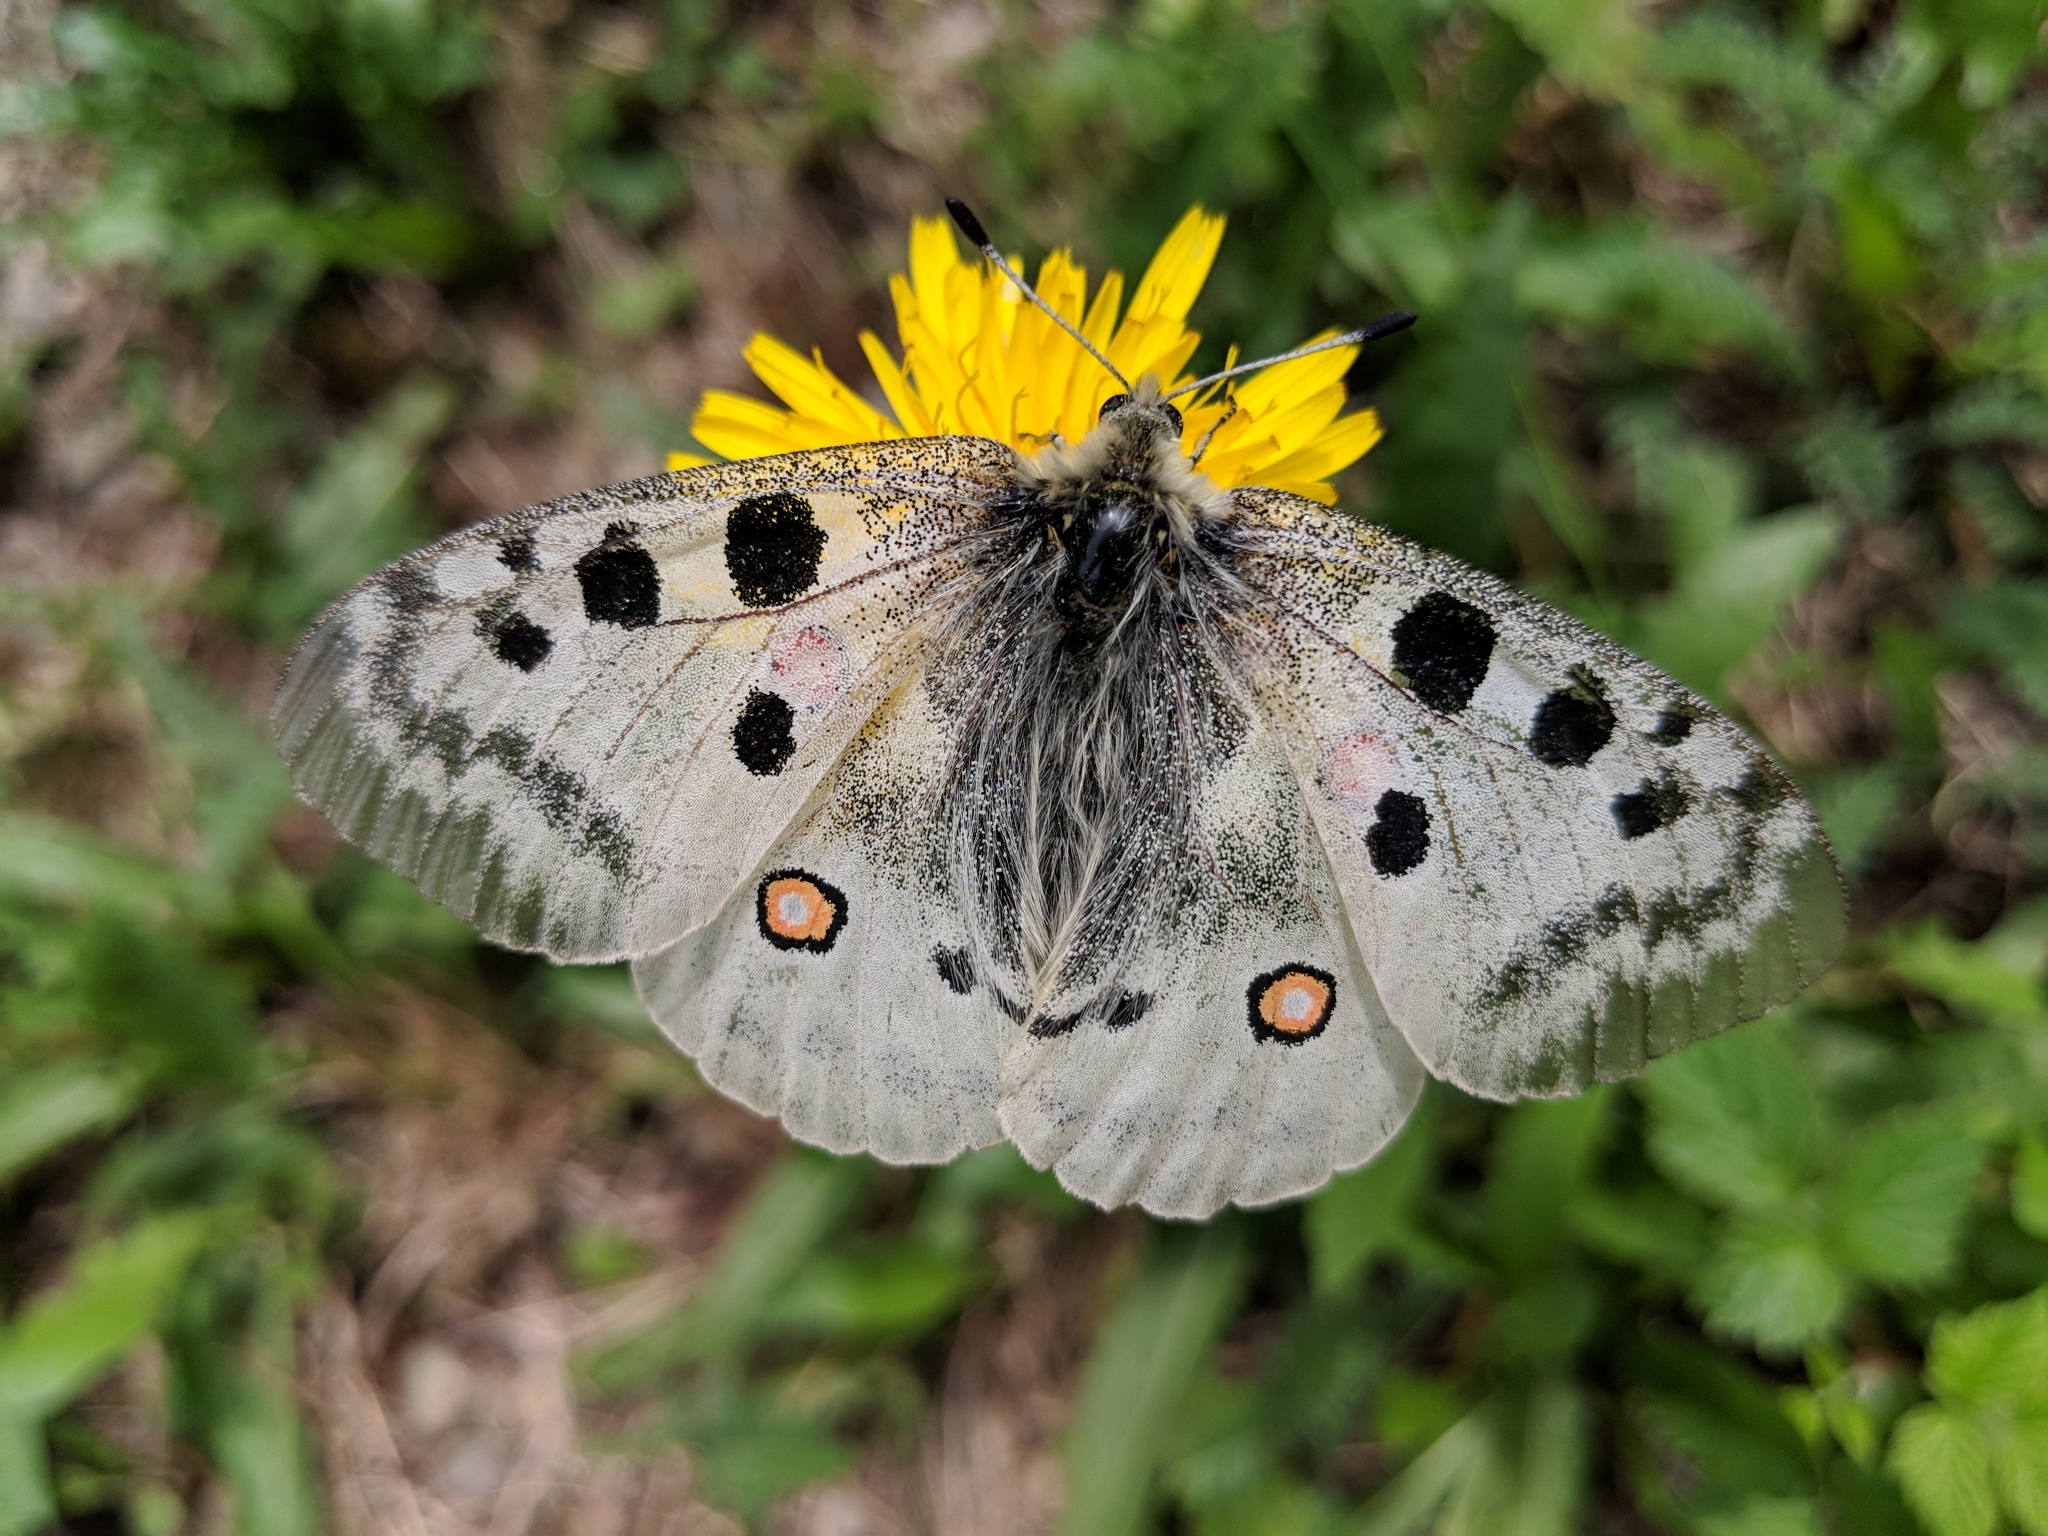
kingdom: Animalia
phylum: Arthropoda
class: Insecta
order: Lepidoptera
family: Papilionidae
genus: Parnassius
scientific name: Parnassius apollo
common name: Apollo
